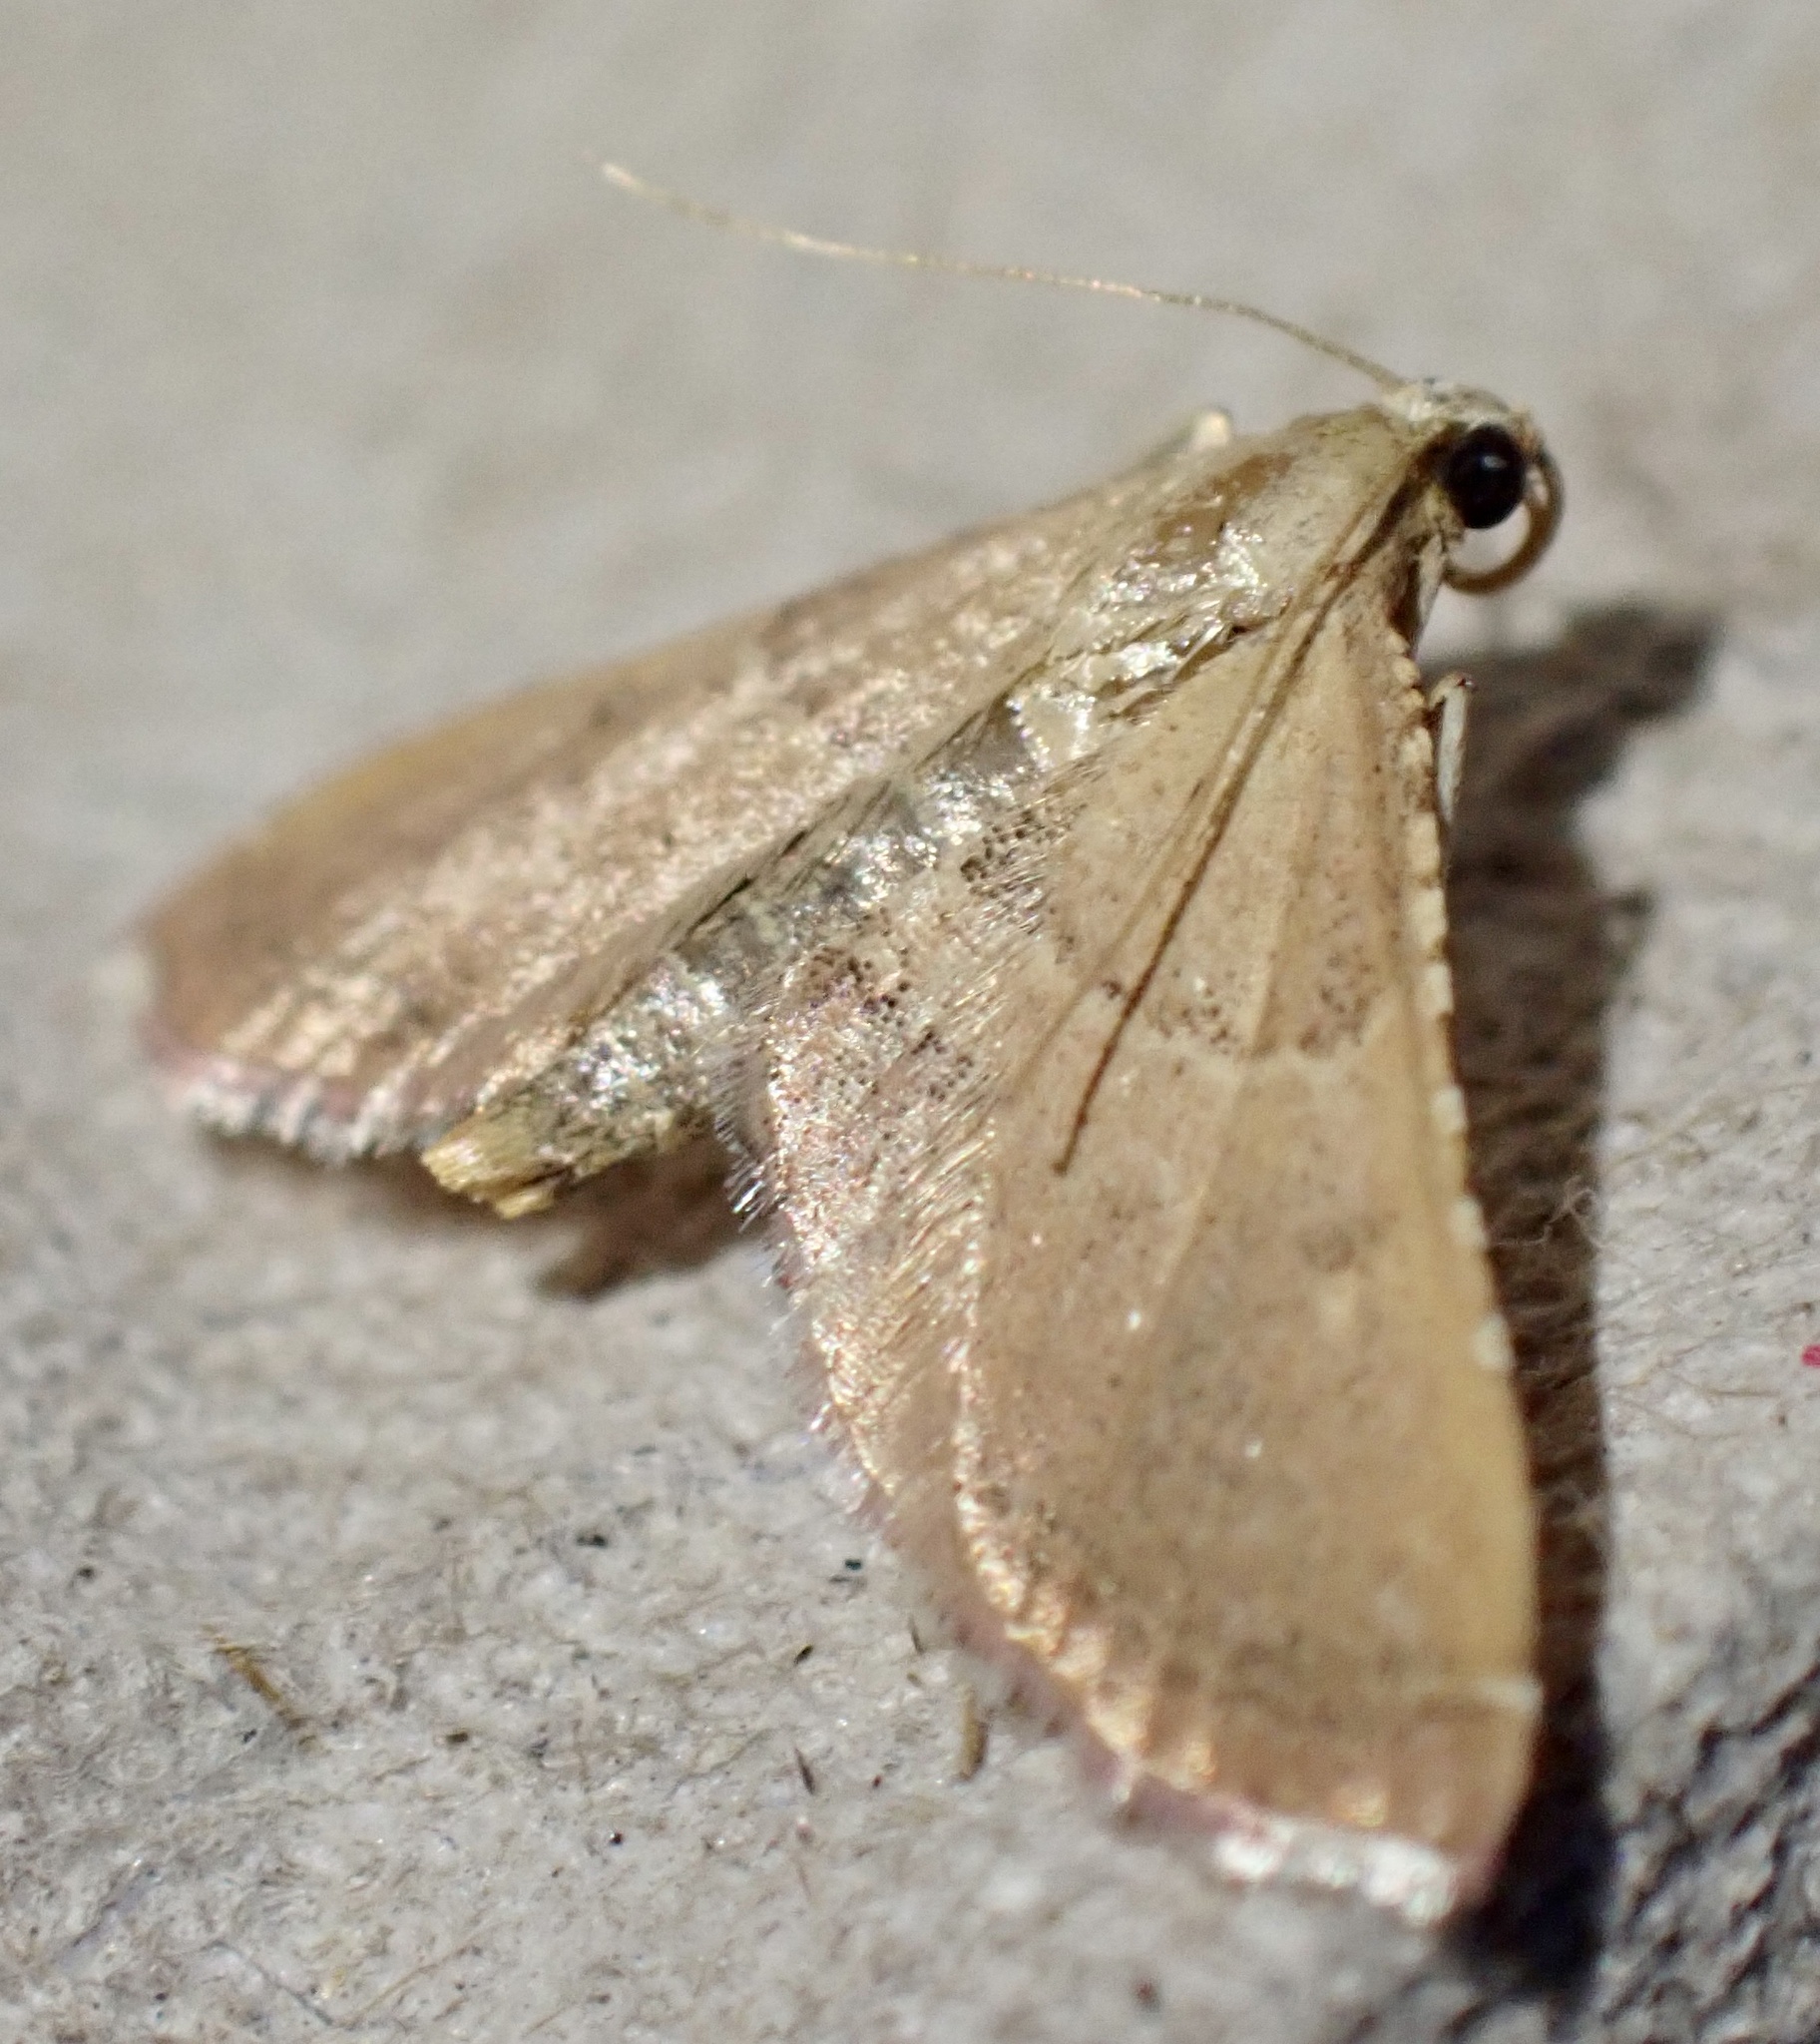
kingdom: Animalia
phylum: Arthropoda
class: Insecta
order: Lepidoptera
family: Pyralidae
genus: Endotricha
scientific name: Endotricha flammealis
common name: Rosy tabby
